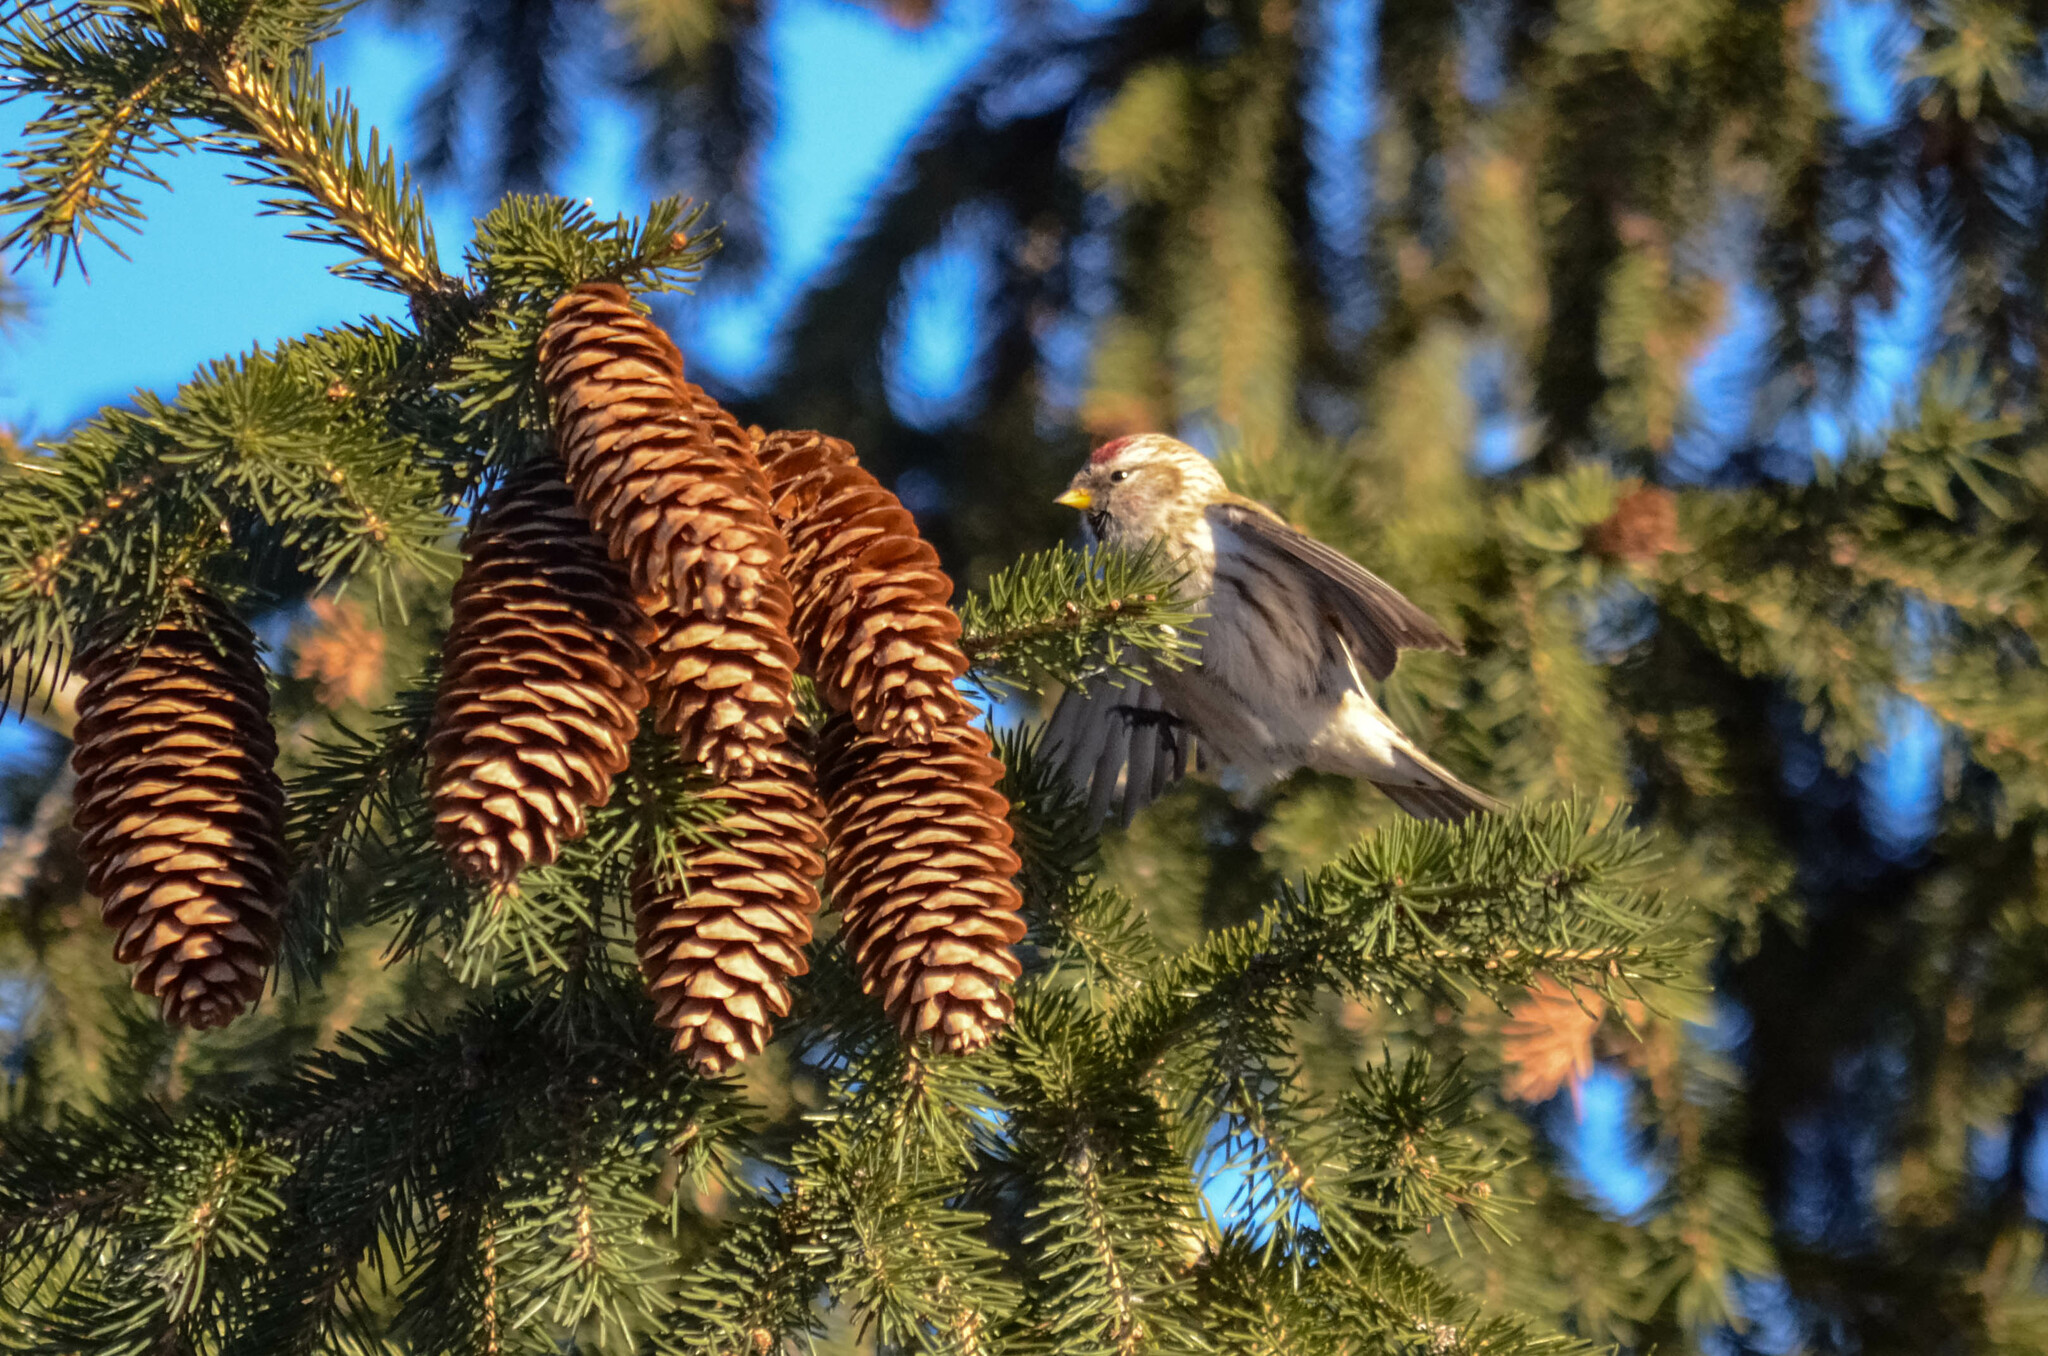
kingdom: Animalia
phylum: Chordata
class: Aves
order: Passeriformes
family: Fringillidae
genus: Acanthis
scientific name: Acanthis flammea
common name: Common redpoll
